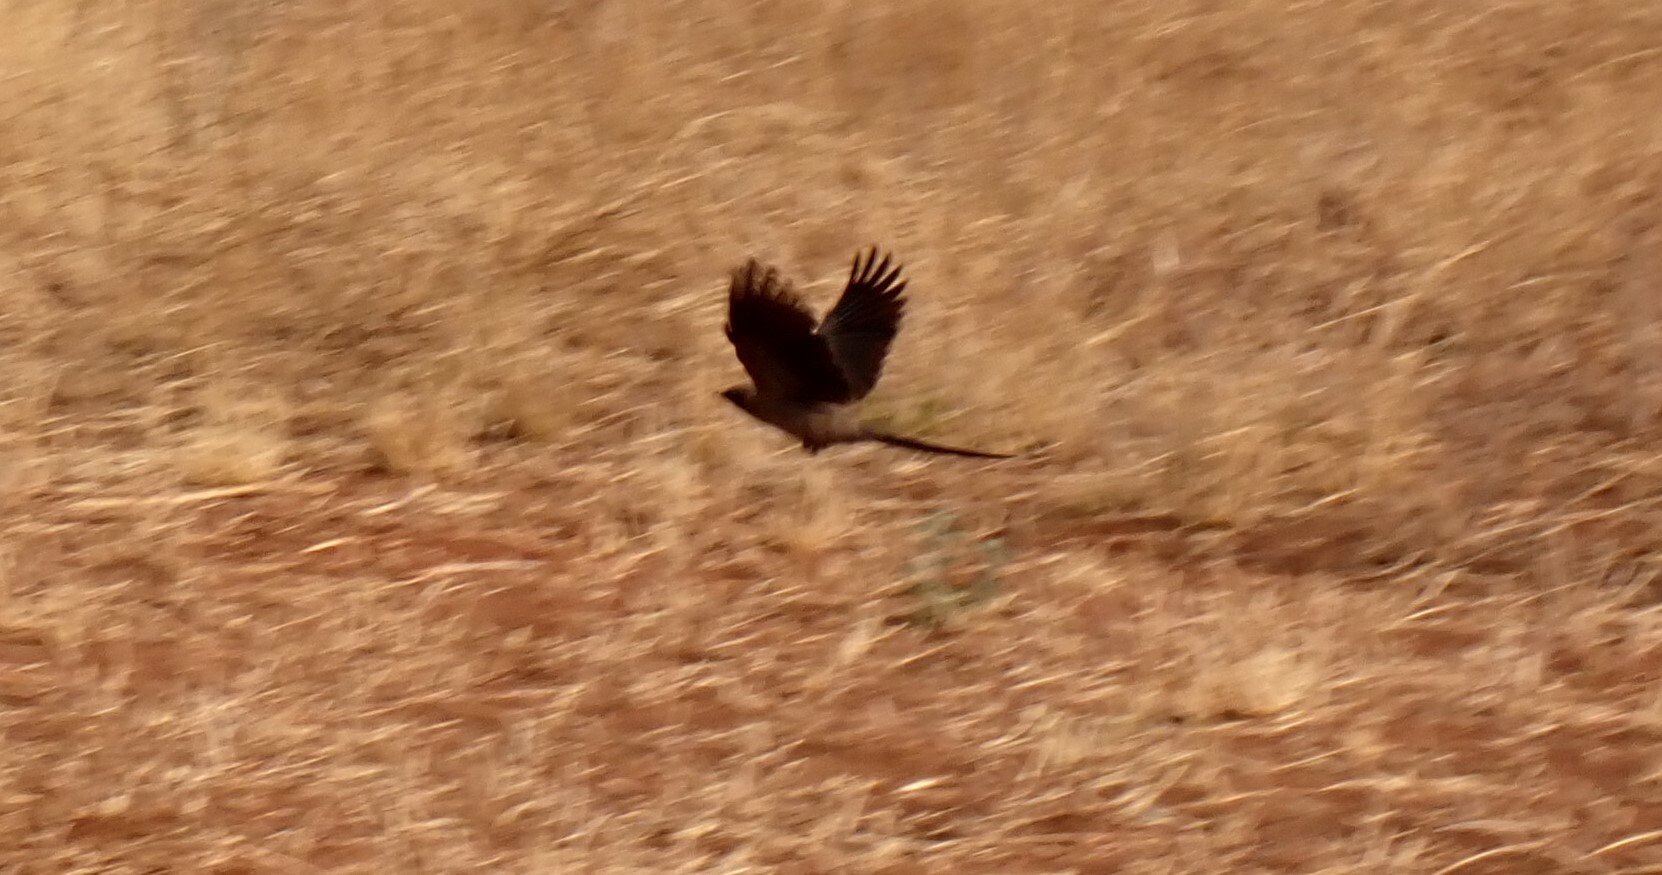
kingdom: Animalia
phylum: Chordata
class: Aves
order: Passeriformes
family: Sturnidae
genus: Lamprotornis
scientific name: Lamprotornis unicolor
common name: Ashy starling
